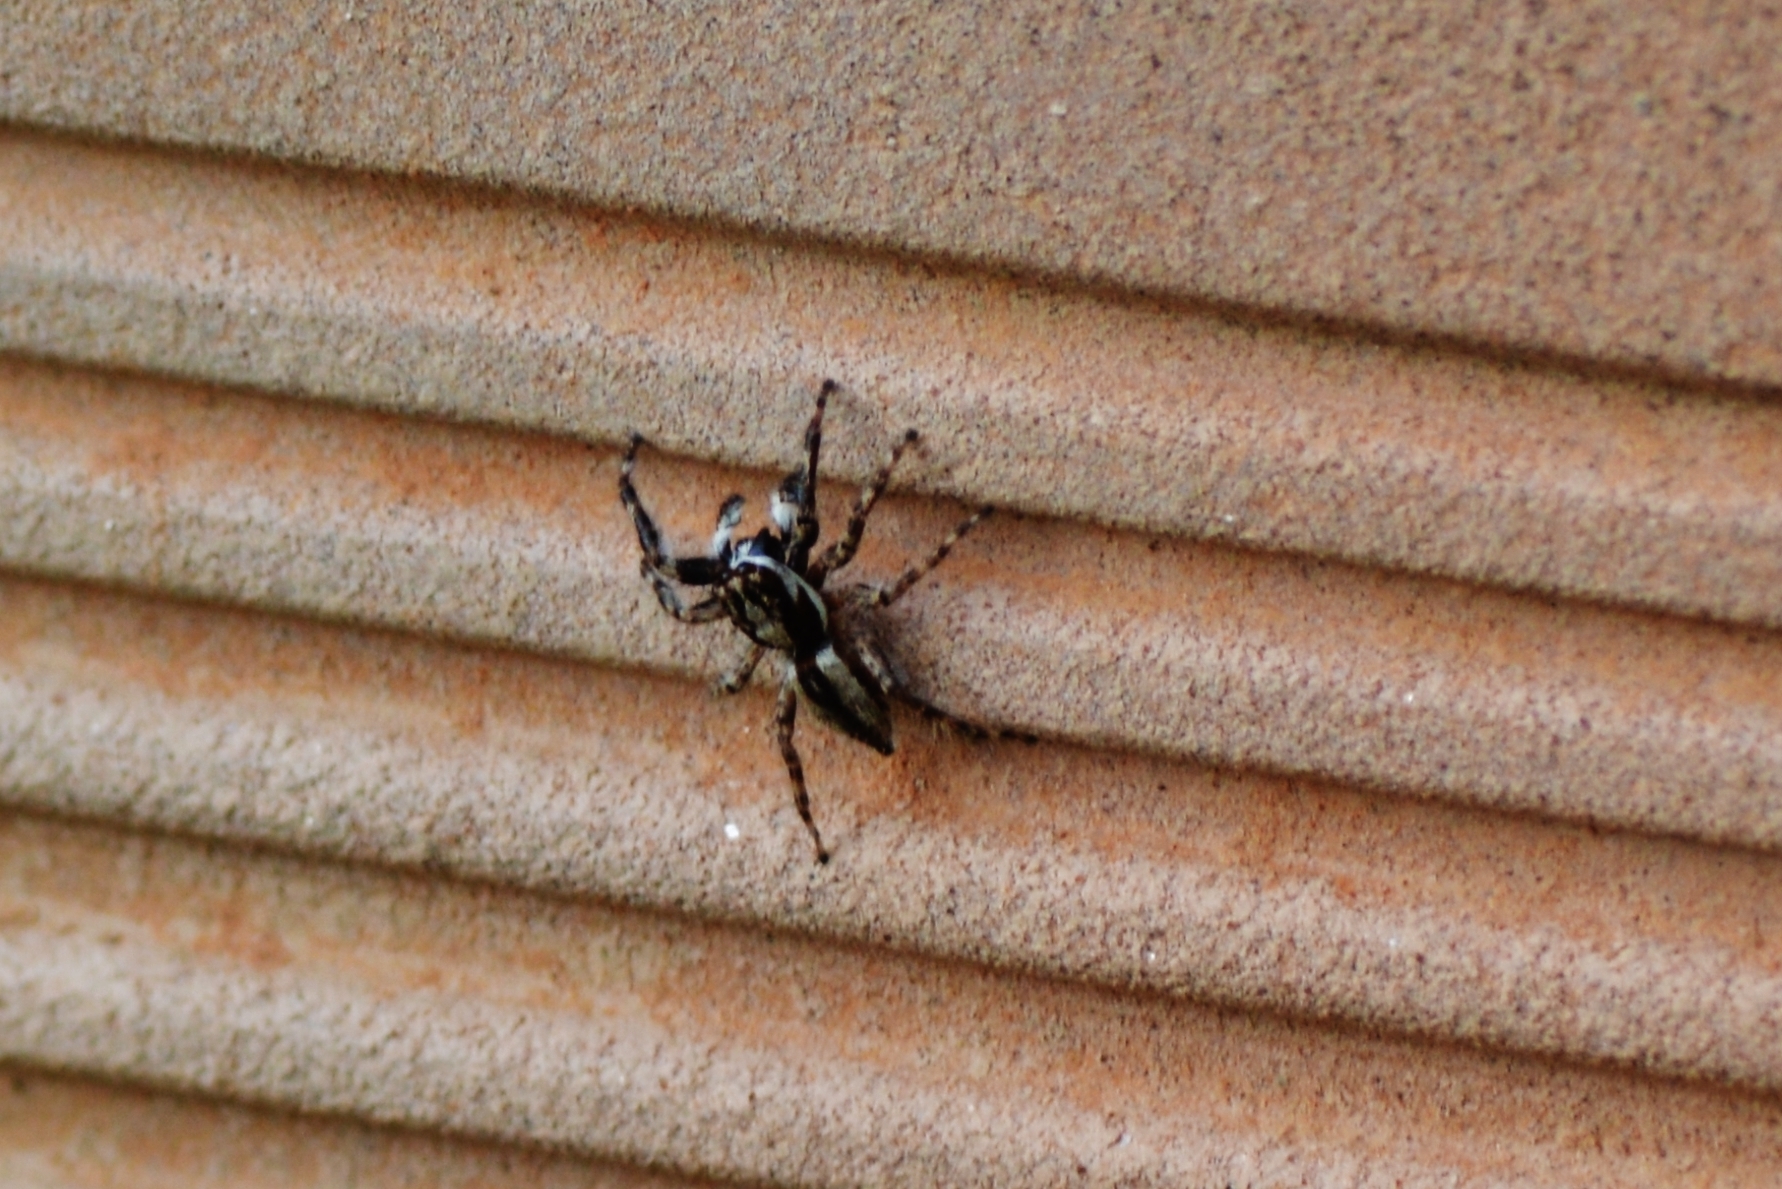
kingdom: Animalia
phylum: Arthropoda
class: Arachnida
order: Araneae
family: Salticidae
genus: Menemerus
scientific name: Menemerus bivittatus
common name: Gray wall jumper
